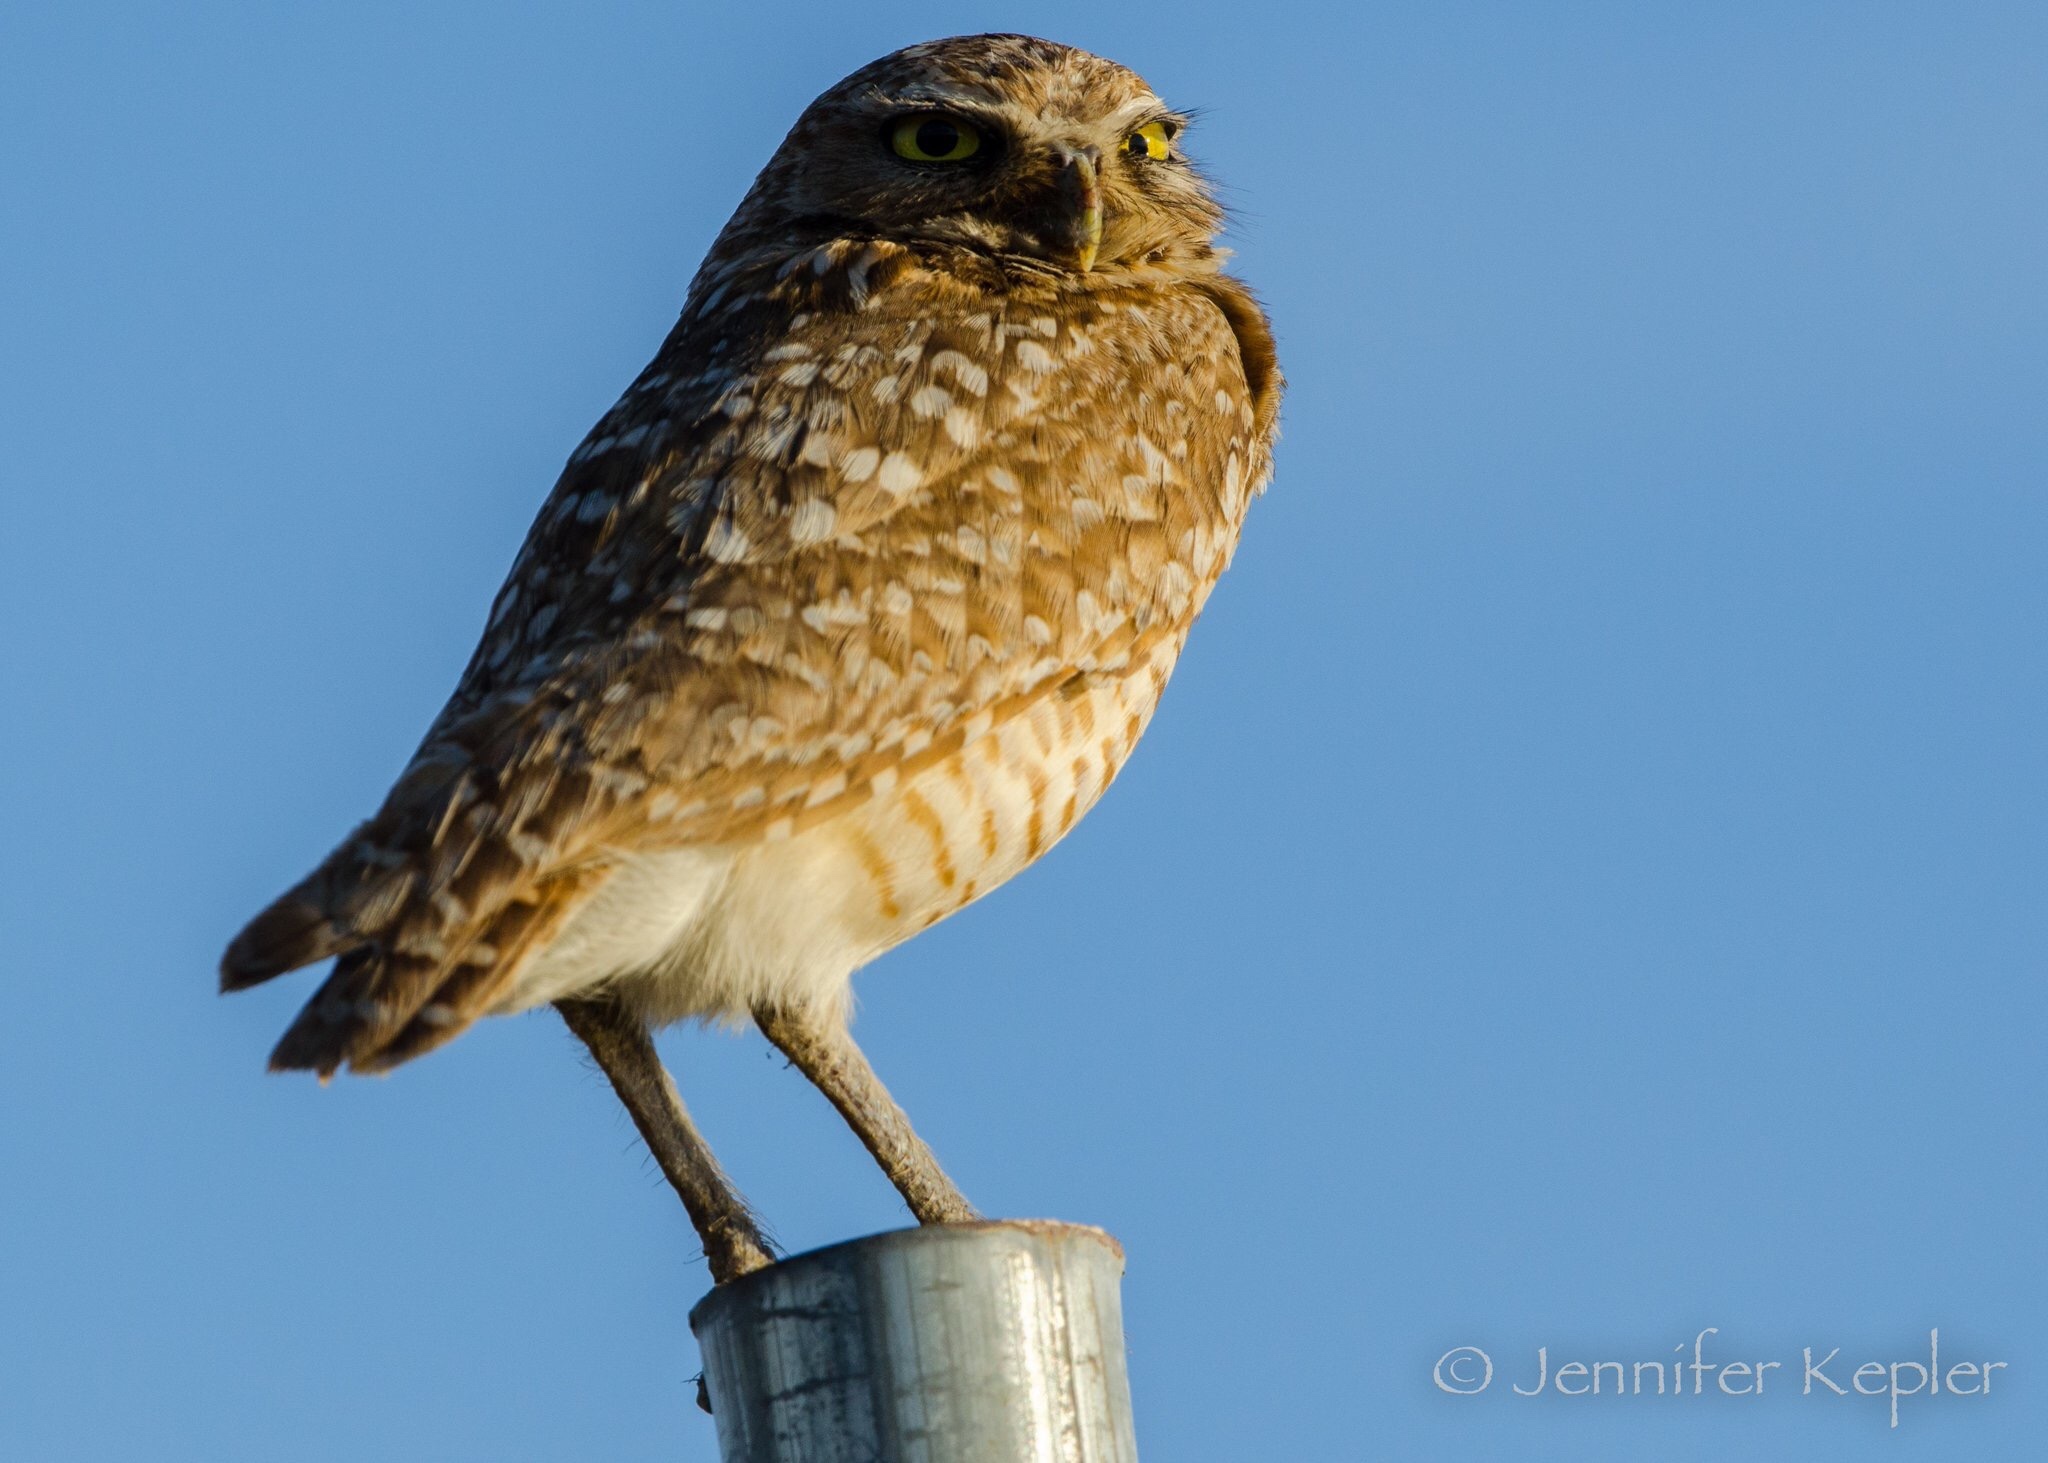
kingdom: Animalia
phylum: Chordata
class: Aves
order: Strigiformes
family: Strigidae
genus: Athene
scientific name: Athene cunicularia
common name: Burrowing owl
